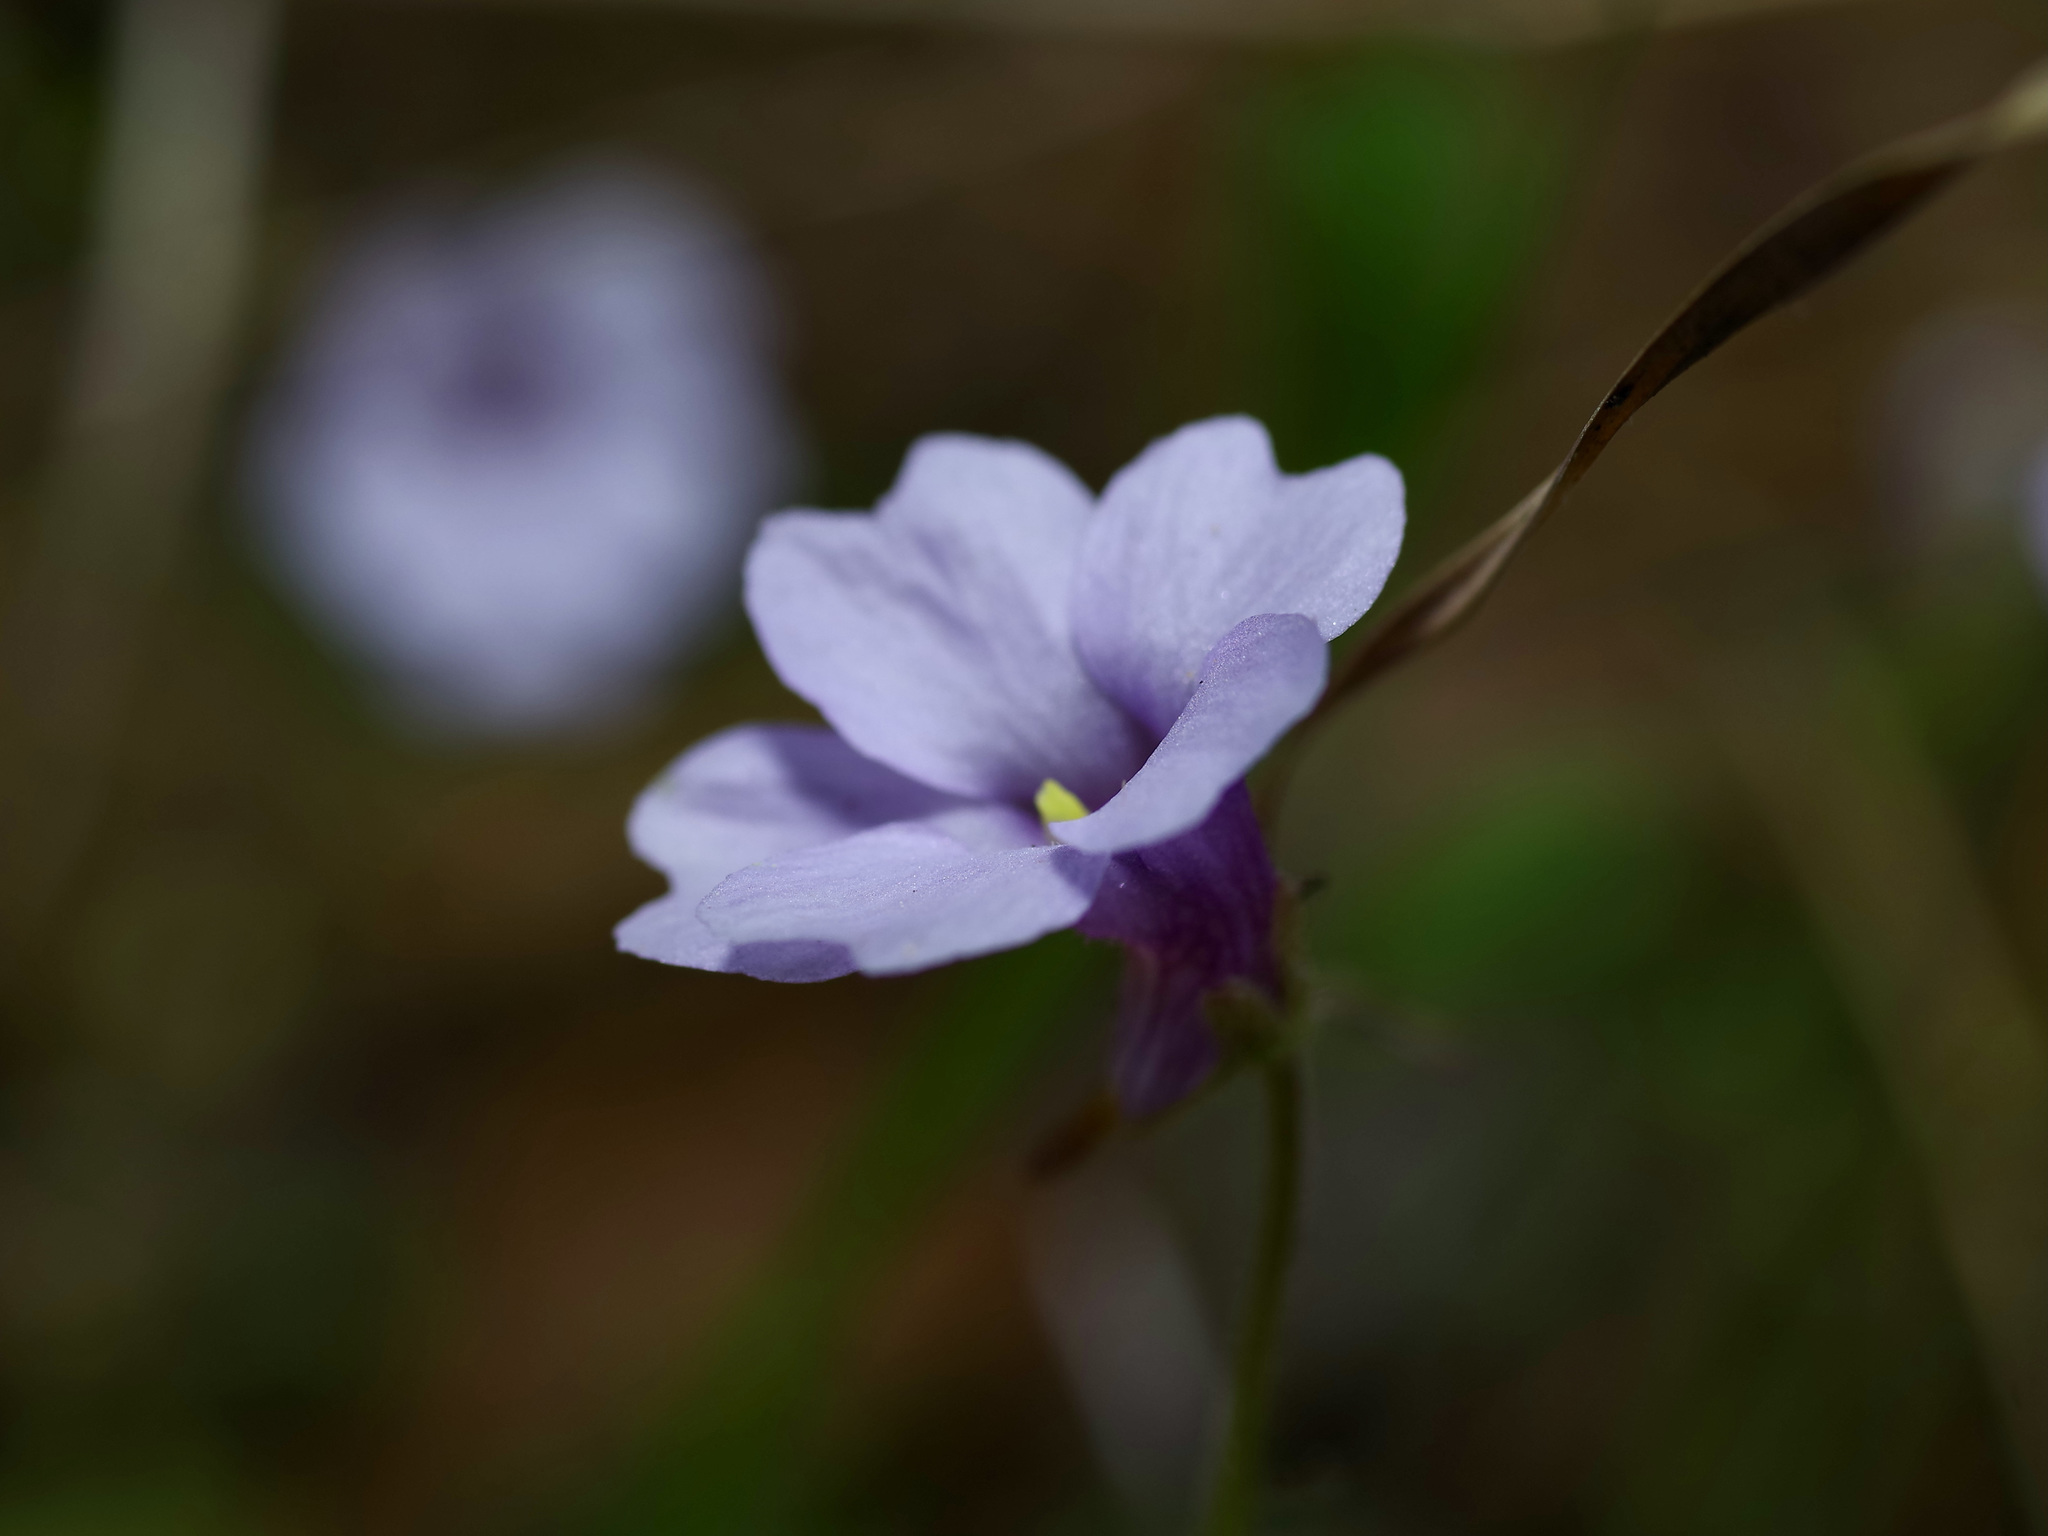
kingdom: Plantae
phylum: Tracheophyta
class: Magnoliopsida
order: Lamiales
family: Lentibulariaceae
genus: Pinguicula
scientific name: Pinguicula pumila
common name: Small butterwort
